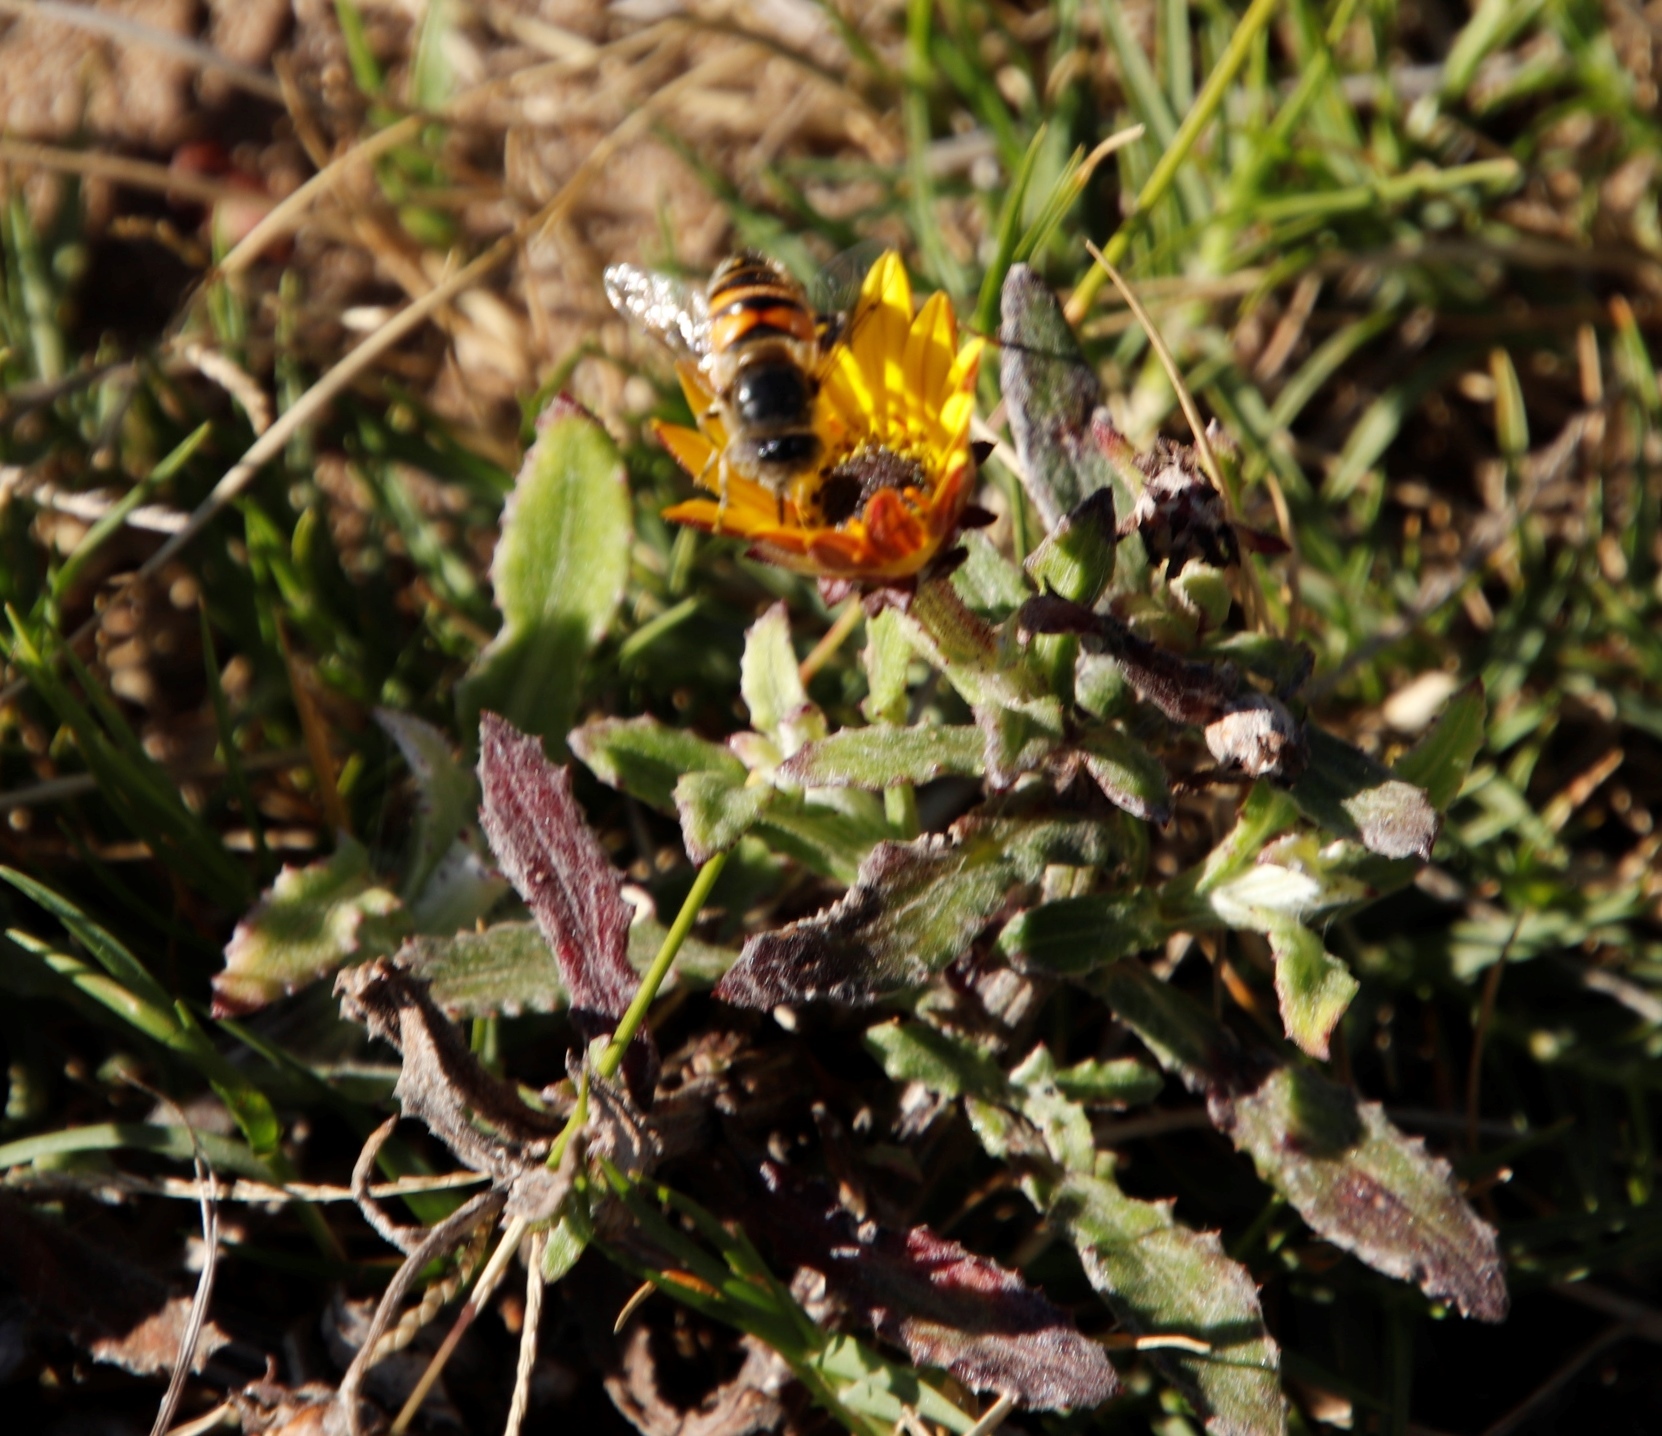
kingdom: Animalia
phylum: Arthropoda
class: Insecta
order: Diptera
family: Syrphidae
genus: Eristalinus
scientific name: Eristalinus modestus
